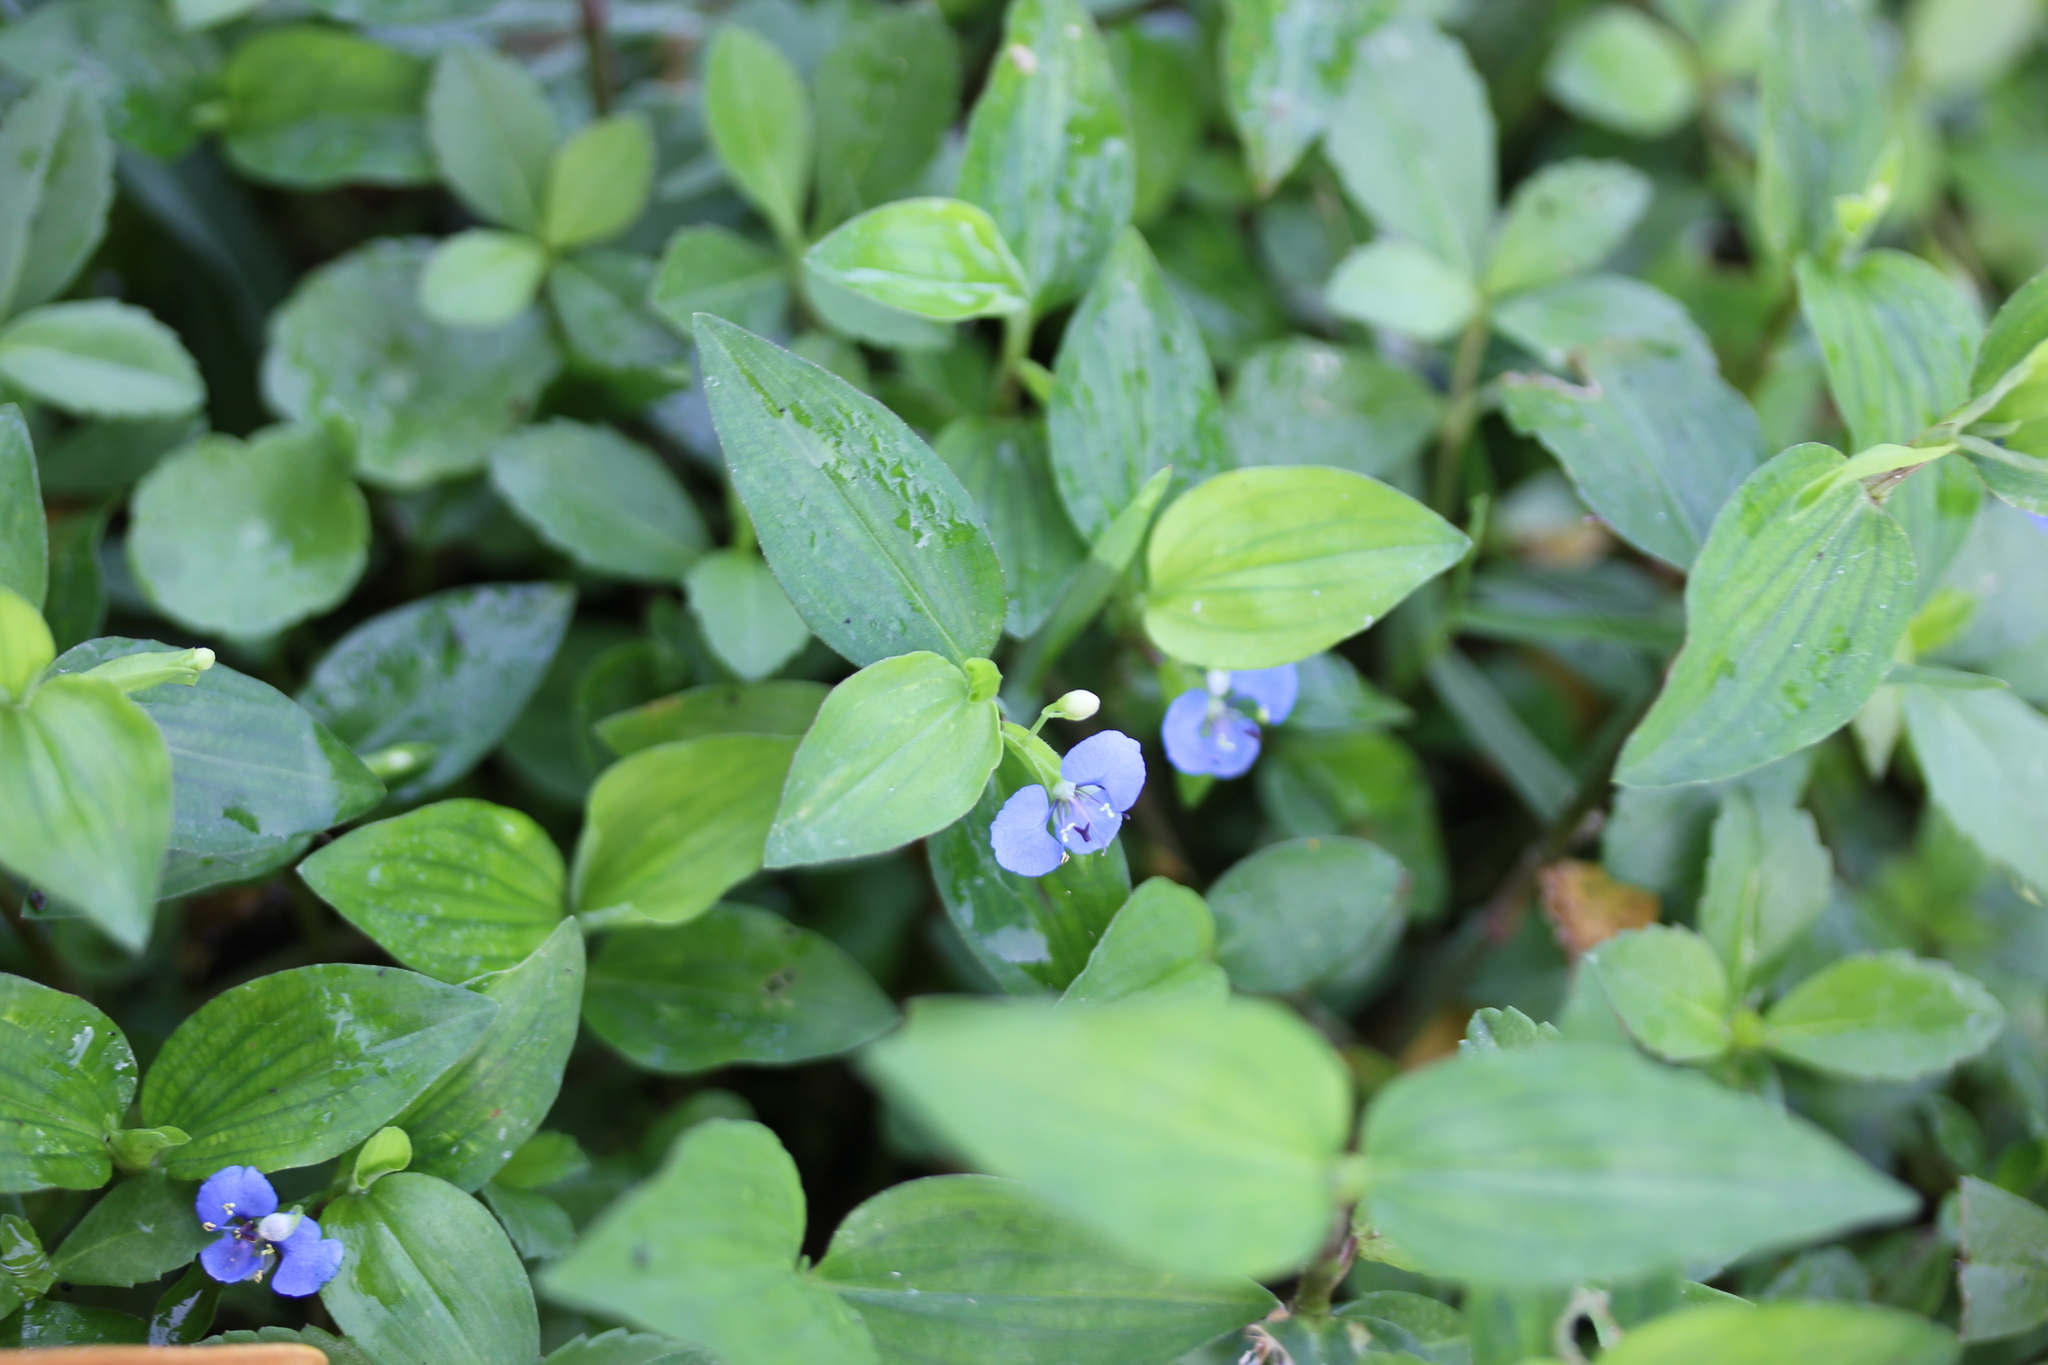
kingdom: Plantae
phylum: Tracheophyta
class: Liliopsida
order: Commelinales
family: Commelinaceae
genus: Commelina
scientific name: Commelina diffusa
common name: Climbing dayflower
